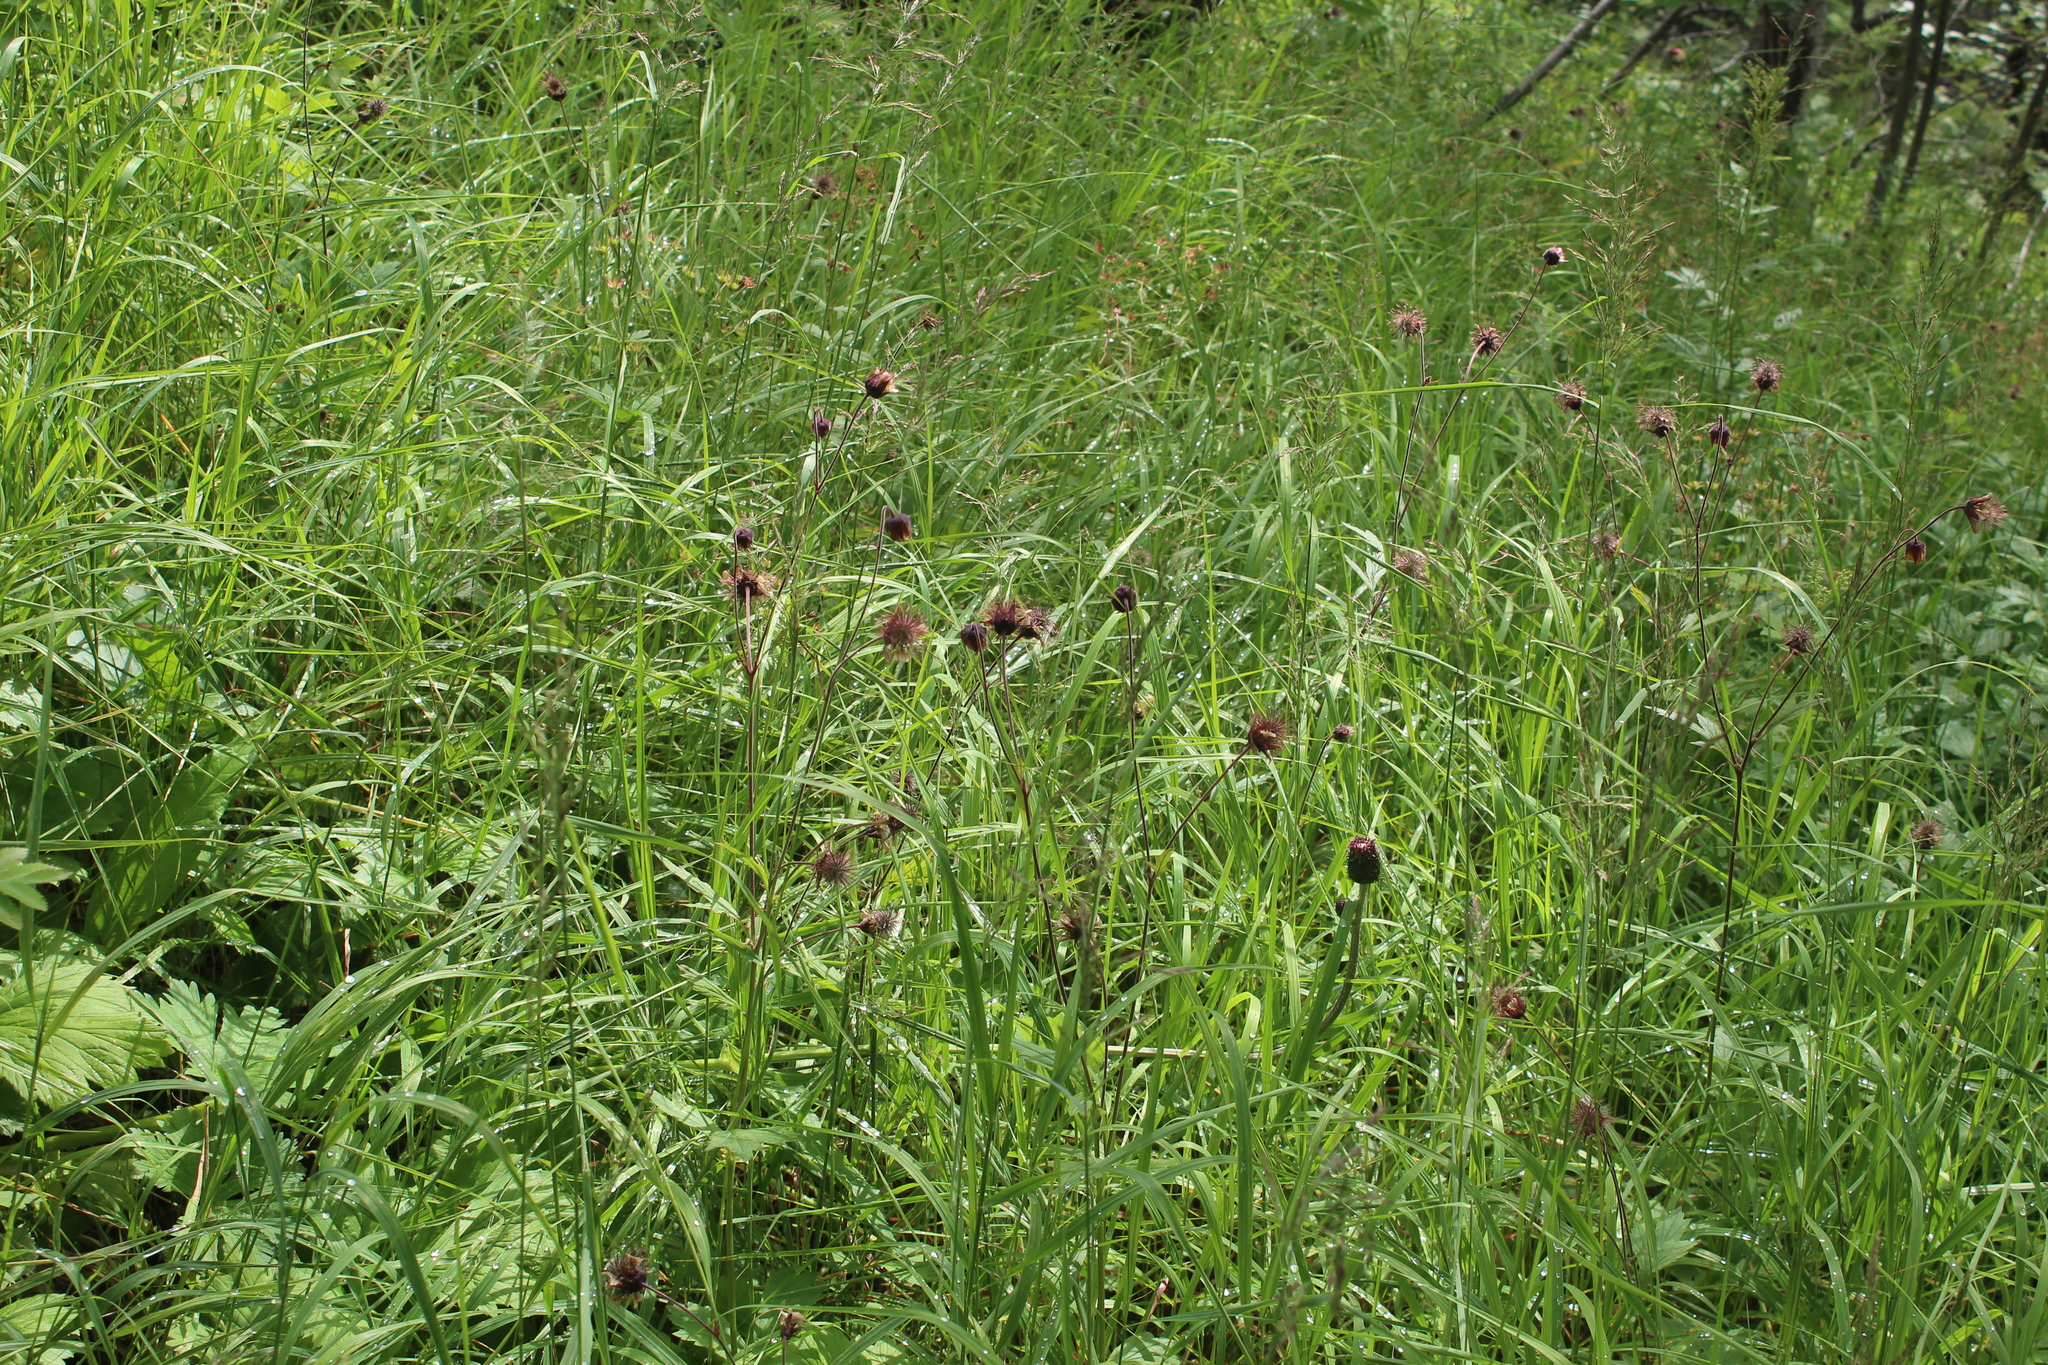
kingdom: Plantae
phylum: Tracheophyta
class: Magnoliopsida
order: Rosales
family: Rosaceae
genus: Geum
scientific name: Geum rivale
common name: Water avens
